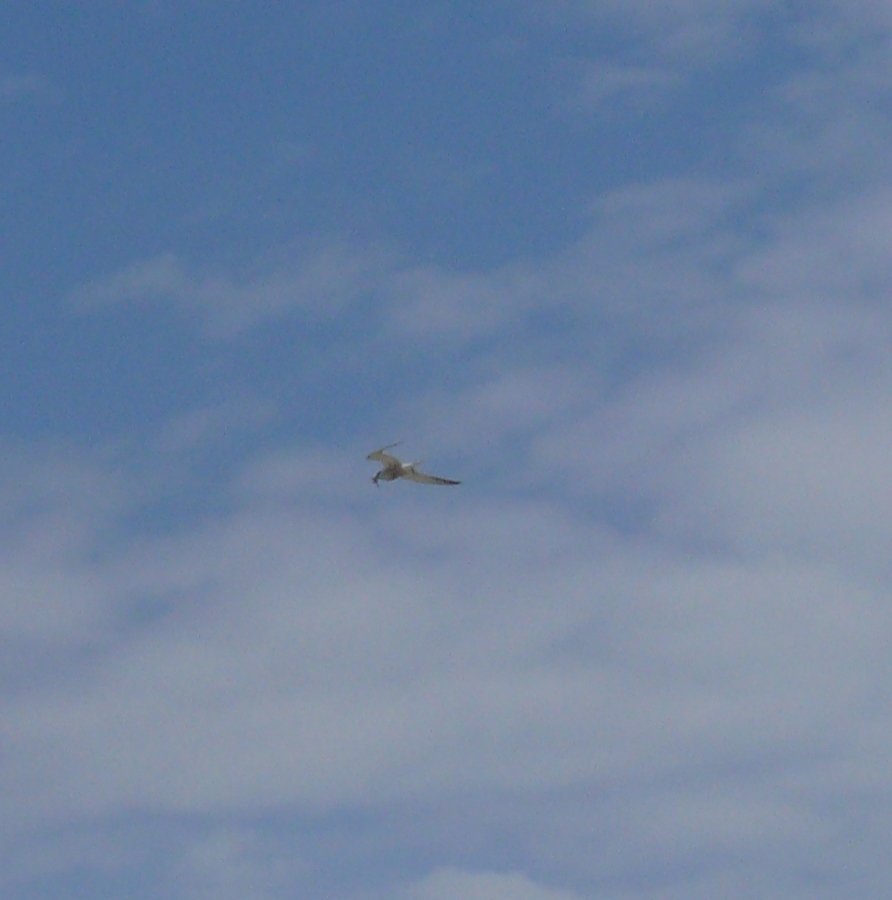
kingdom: Animalia
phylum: Chordata
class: Aves
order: Charadriiformes
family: Laridae
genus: Thalasseus
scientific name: Thalasseus sandvicensis
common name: Sandwich tern
